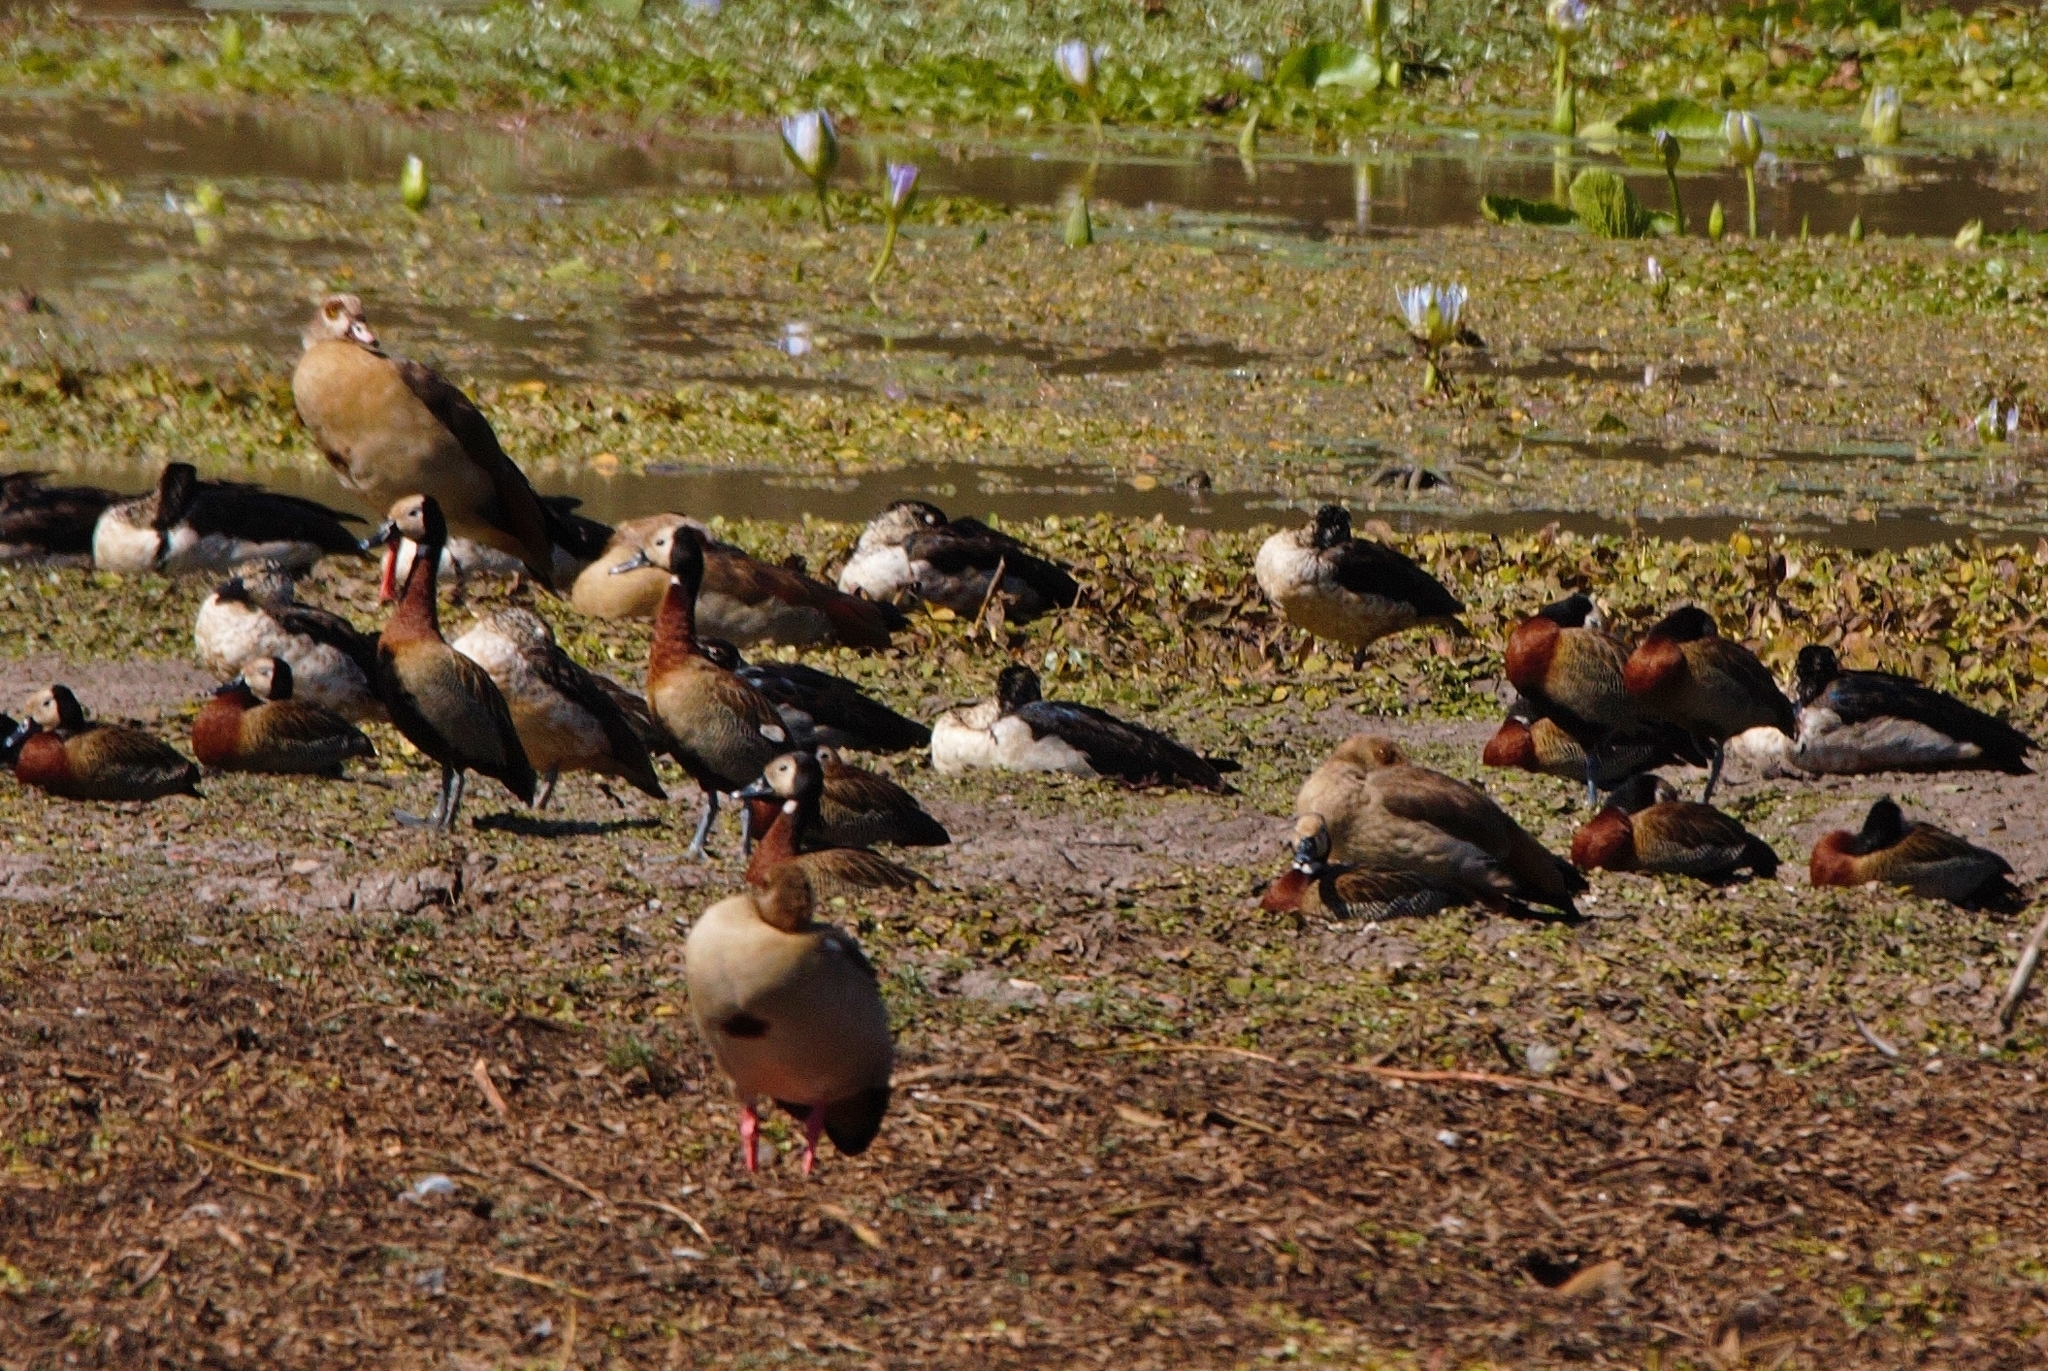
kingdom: Animalia
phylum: Chordata
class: Aves
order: Anseriformes
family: Anatidae
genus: Dendrocygna
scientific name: Dendrocygna viduata
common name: White-faced whistling duck
